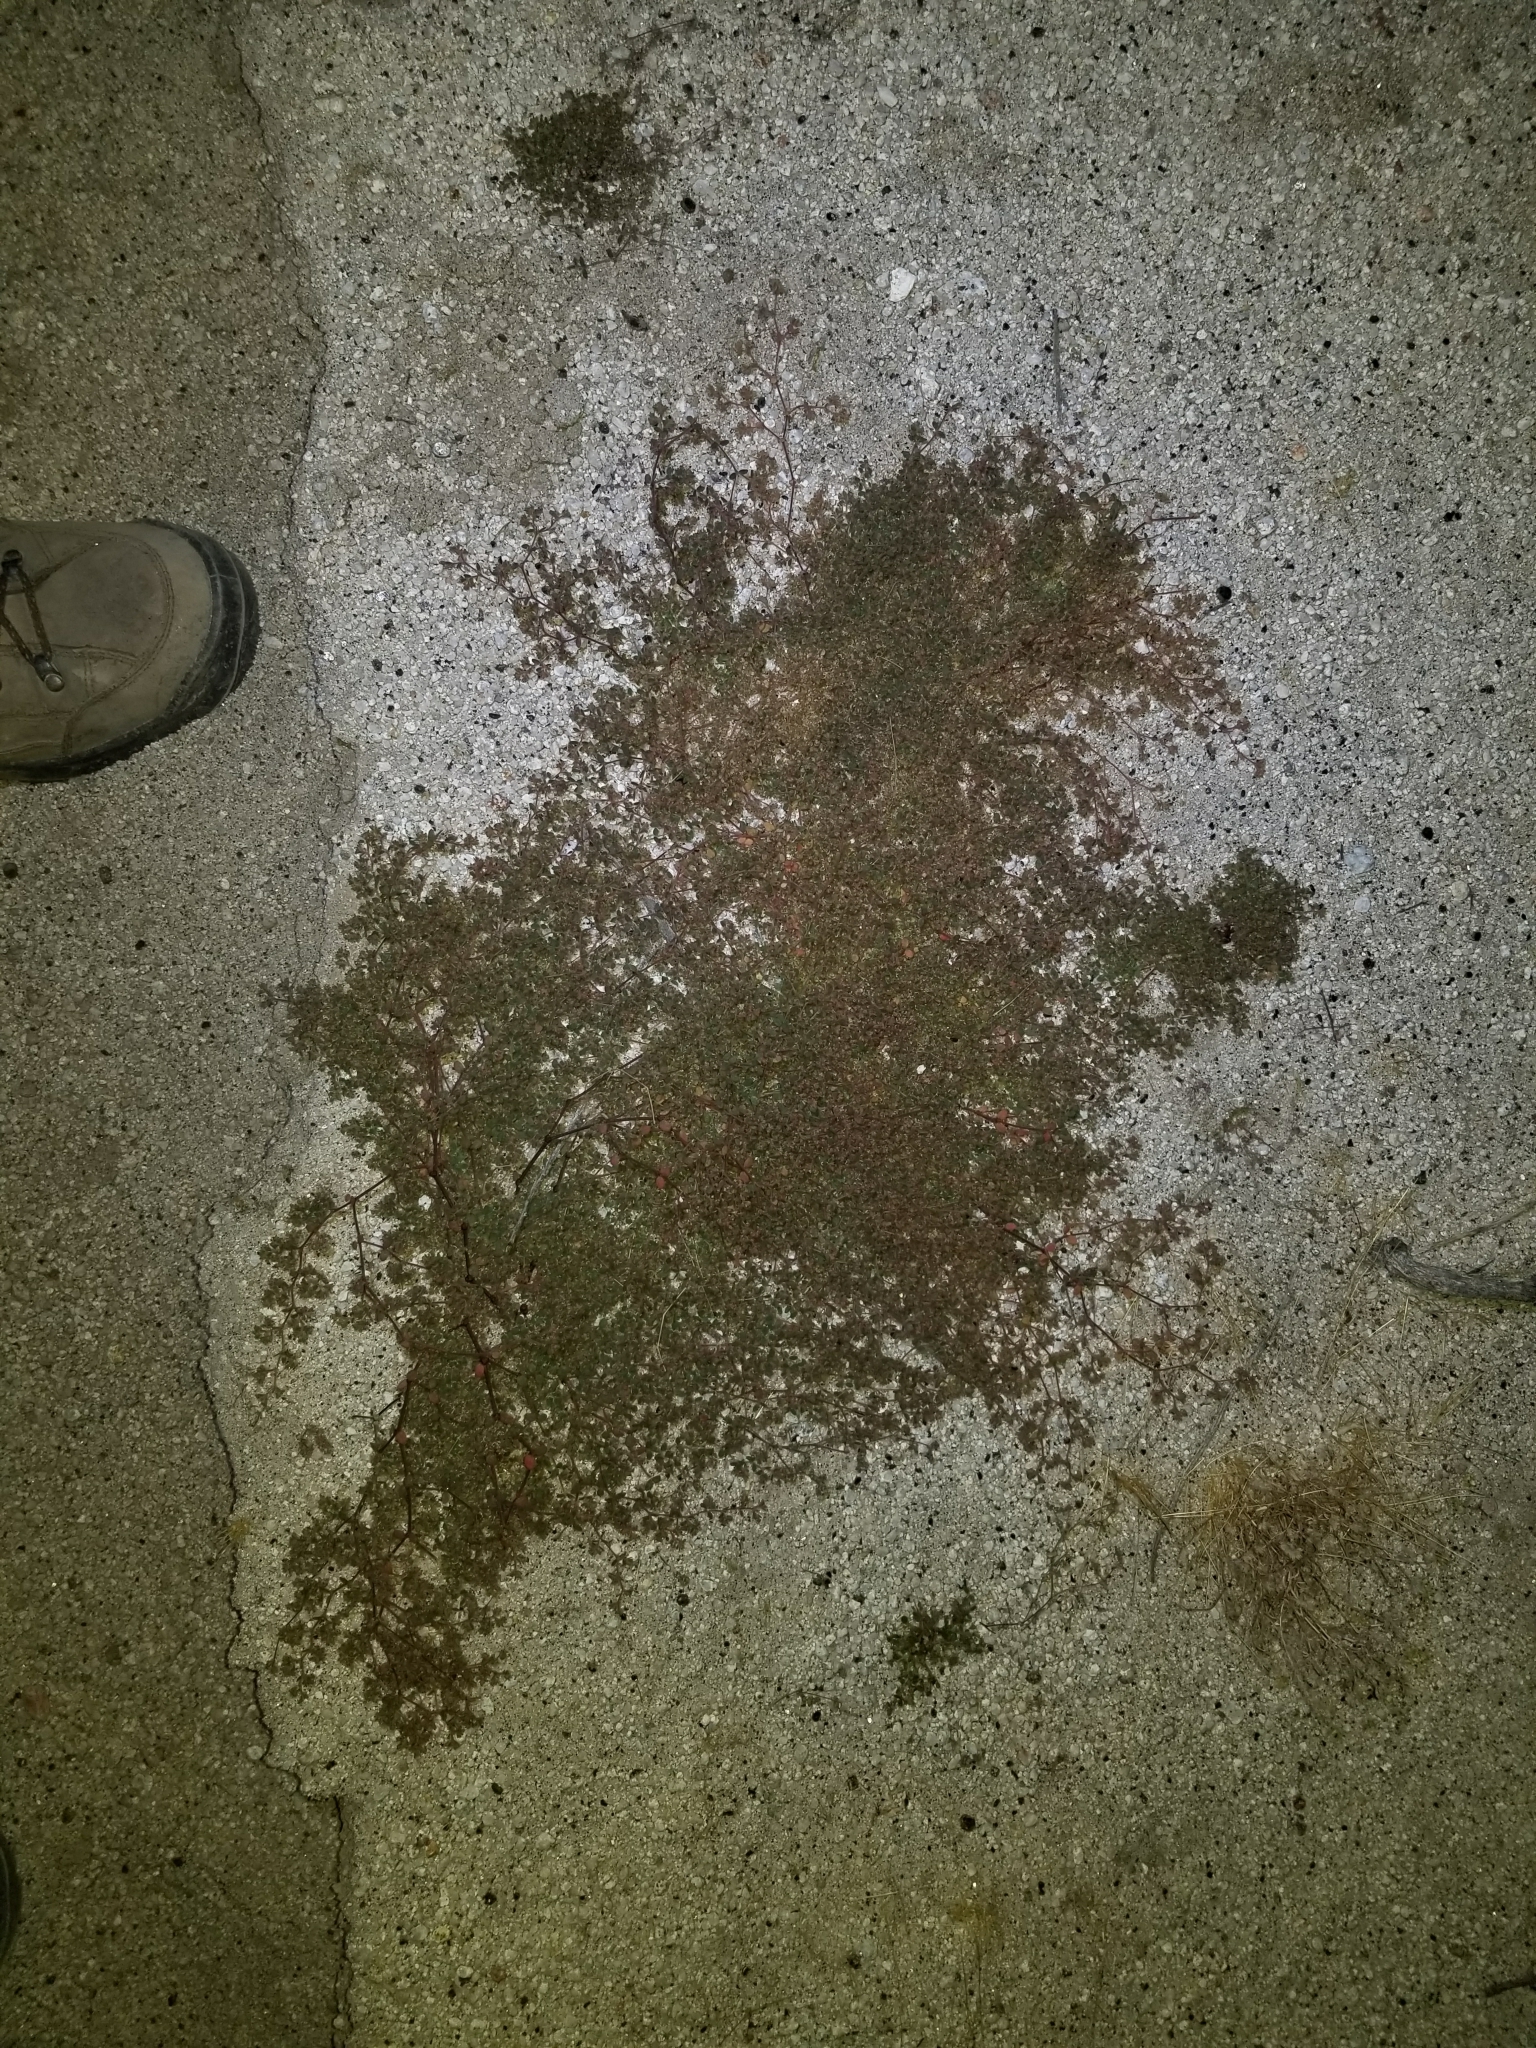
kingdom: Plantae
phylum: Tracheophyta
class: Magnoliopsida
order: Malpighiales
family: Euphorbiaceae
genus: Euphorbia
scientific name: Euphorbia setiloba
